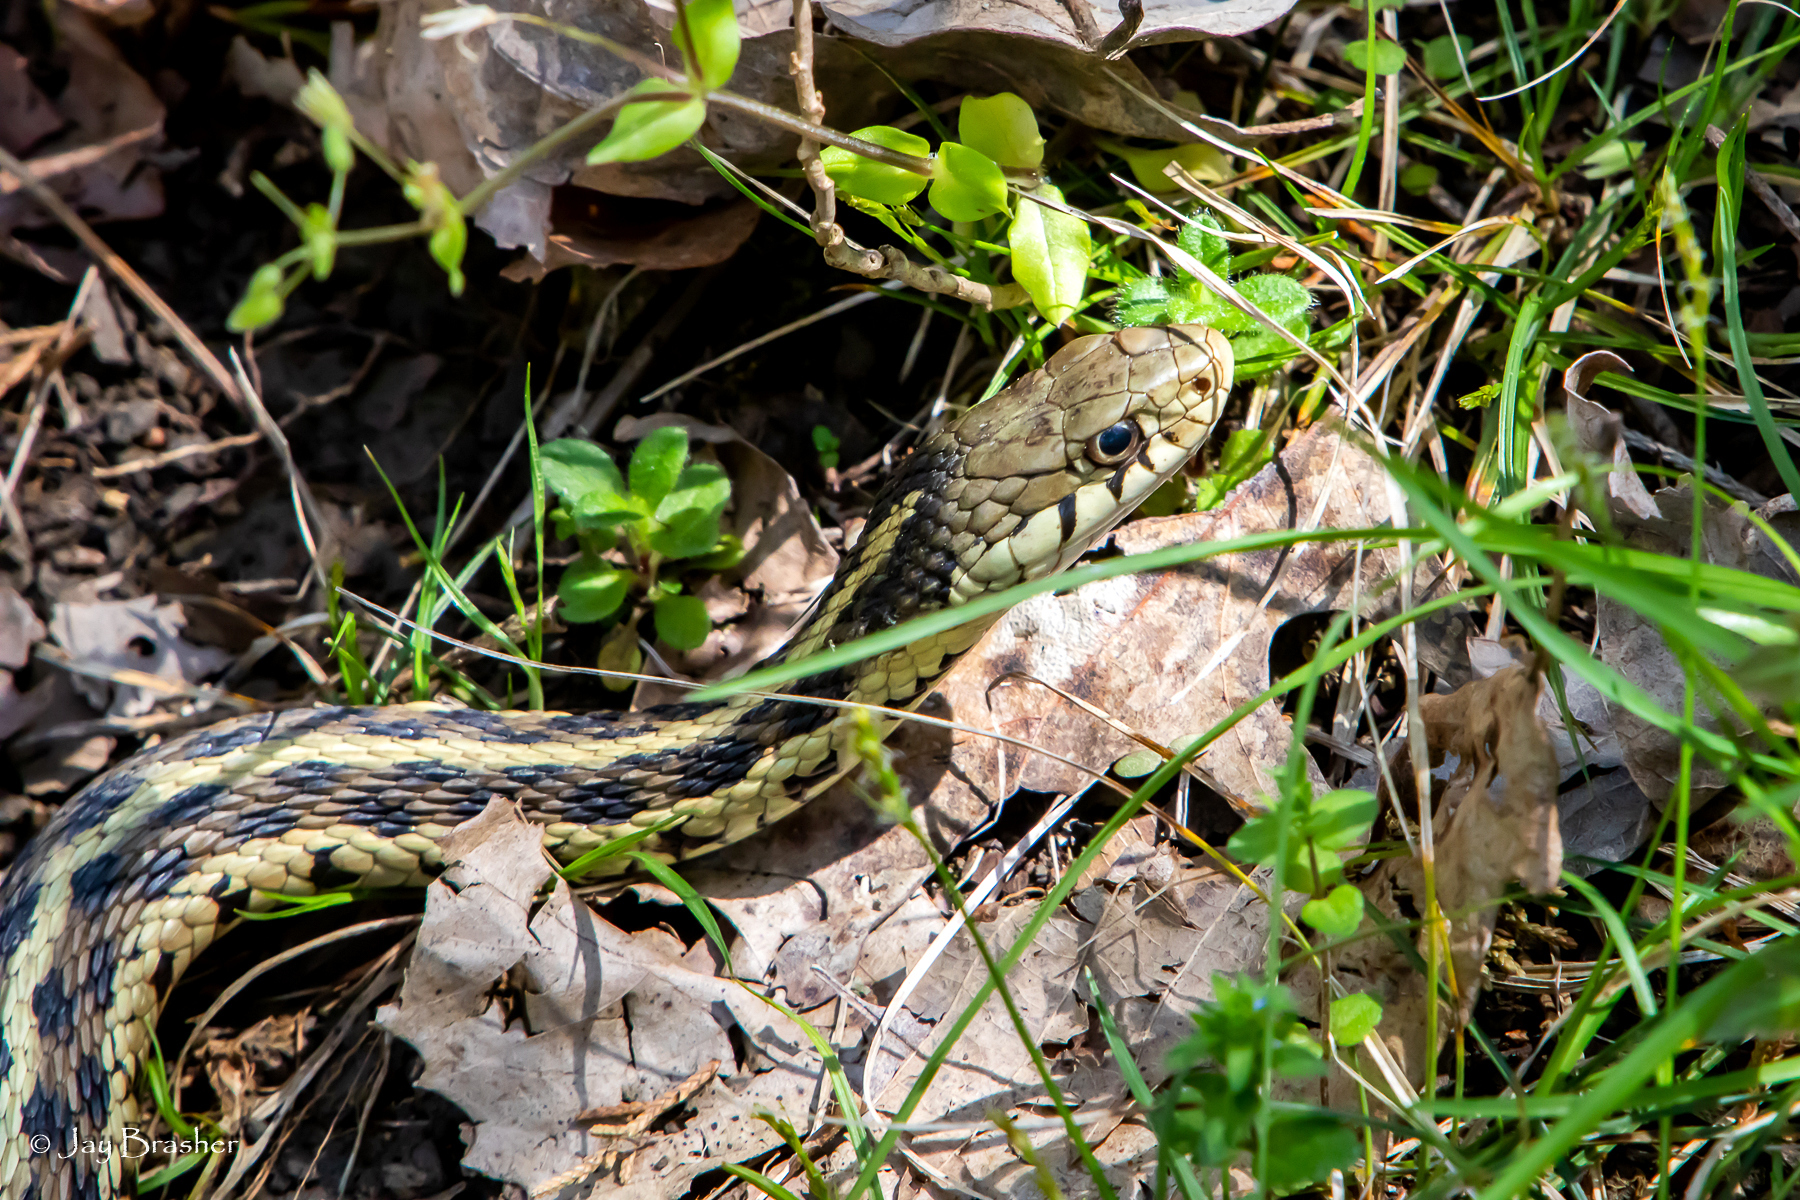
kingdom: Animalia
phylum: Chordata
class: Squamata
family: Colubridae
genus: Thamnophis
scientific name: Thamnophis sirtalis
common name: Common garter snake
